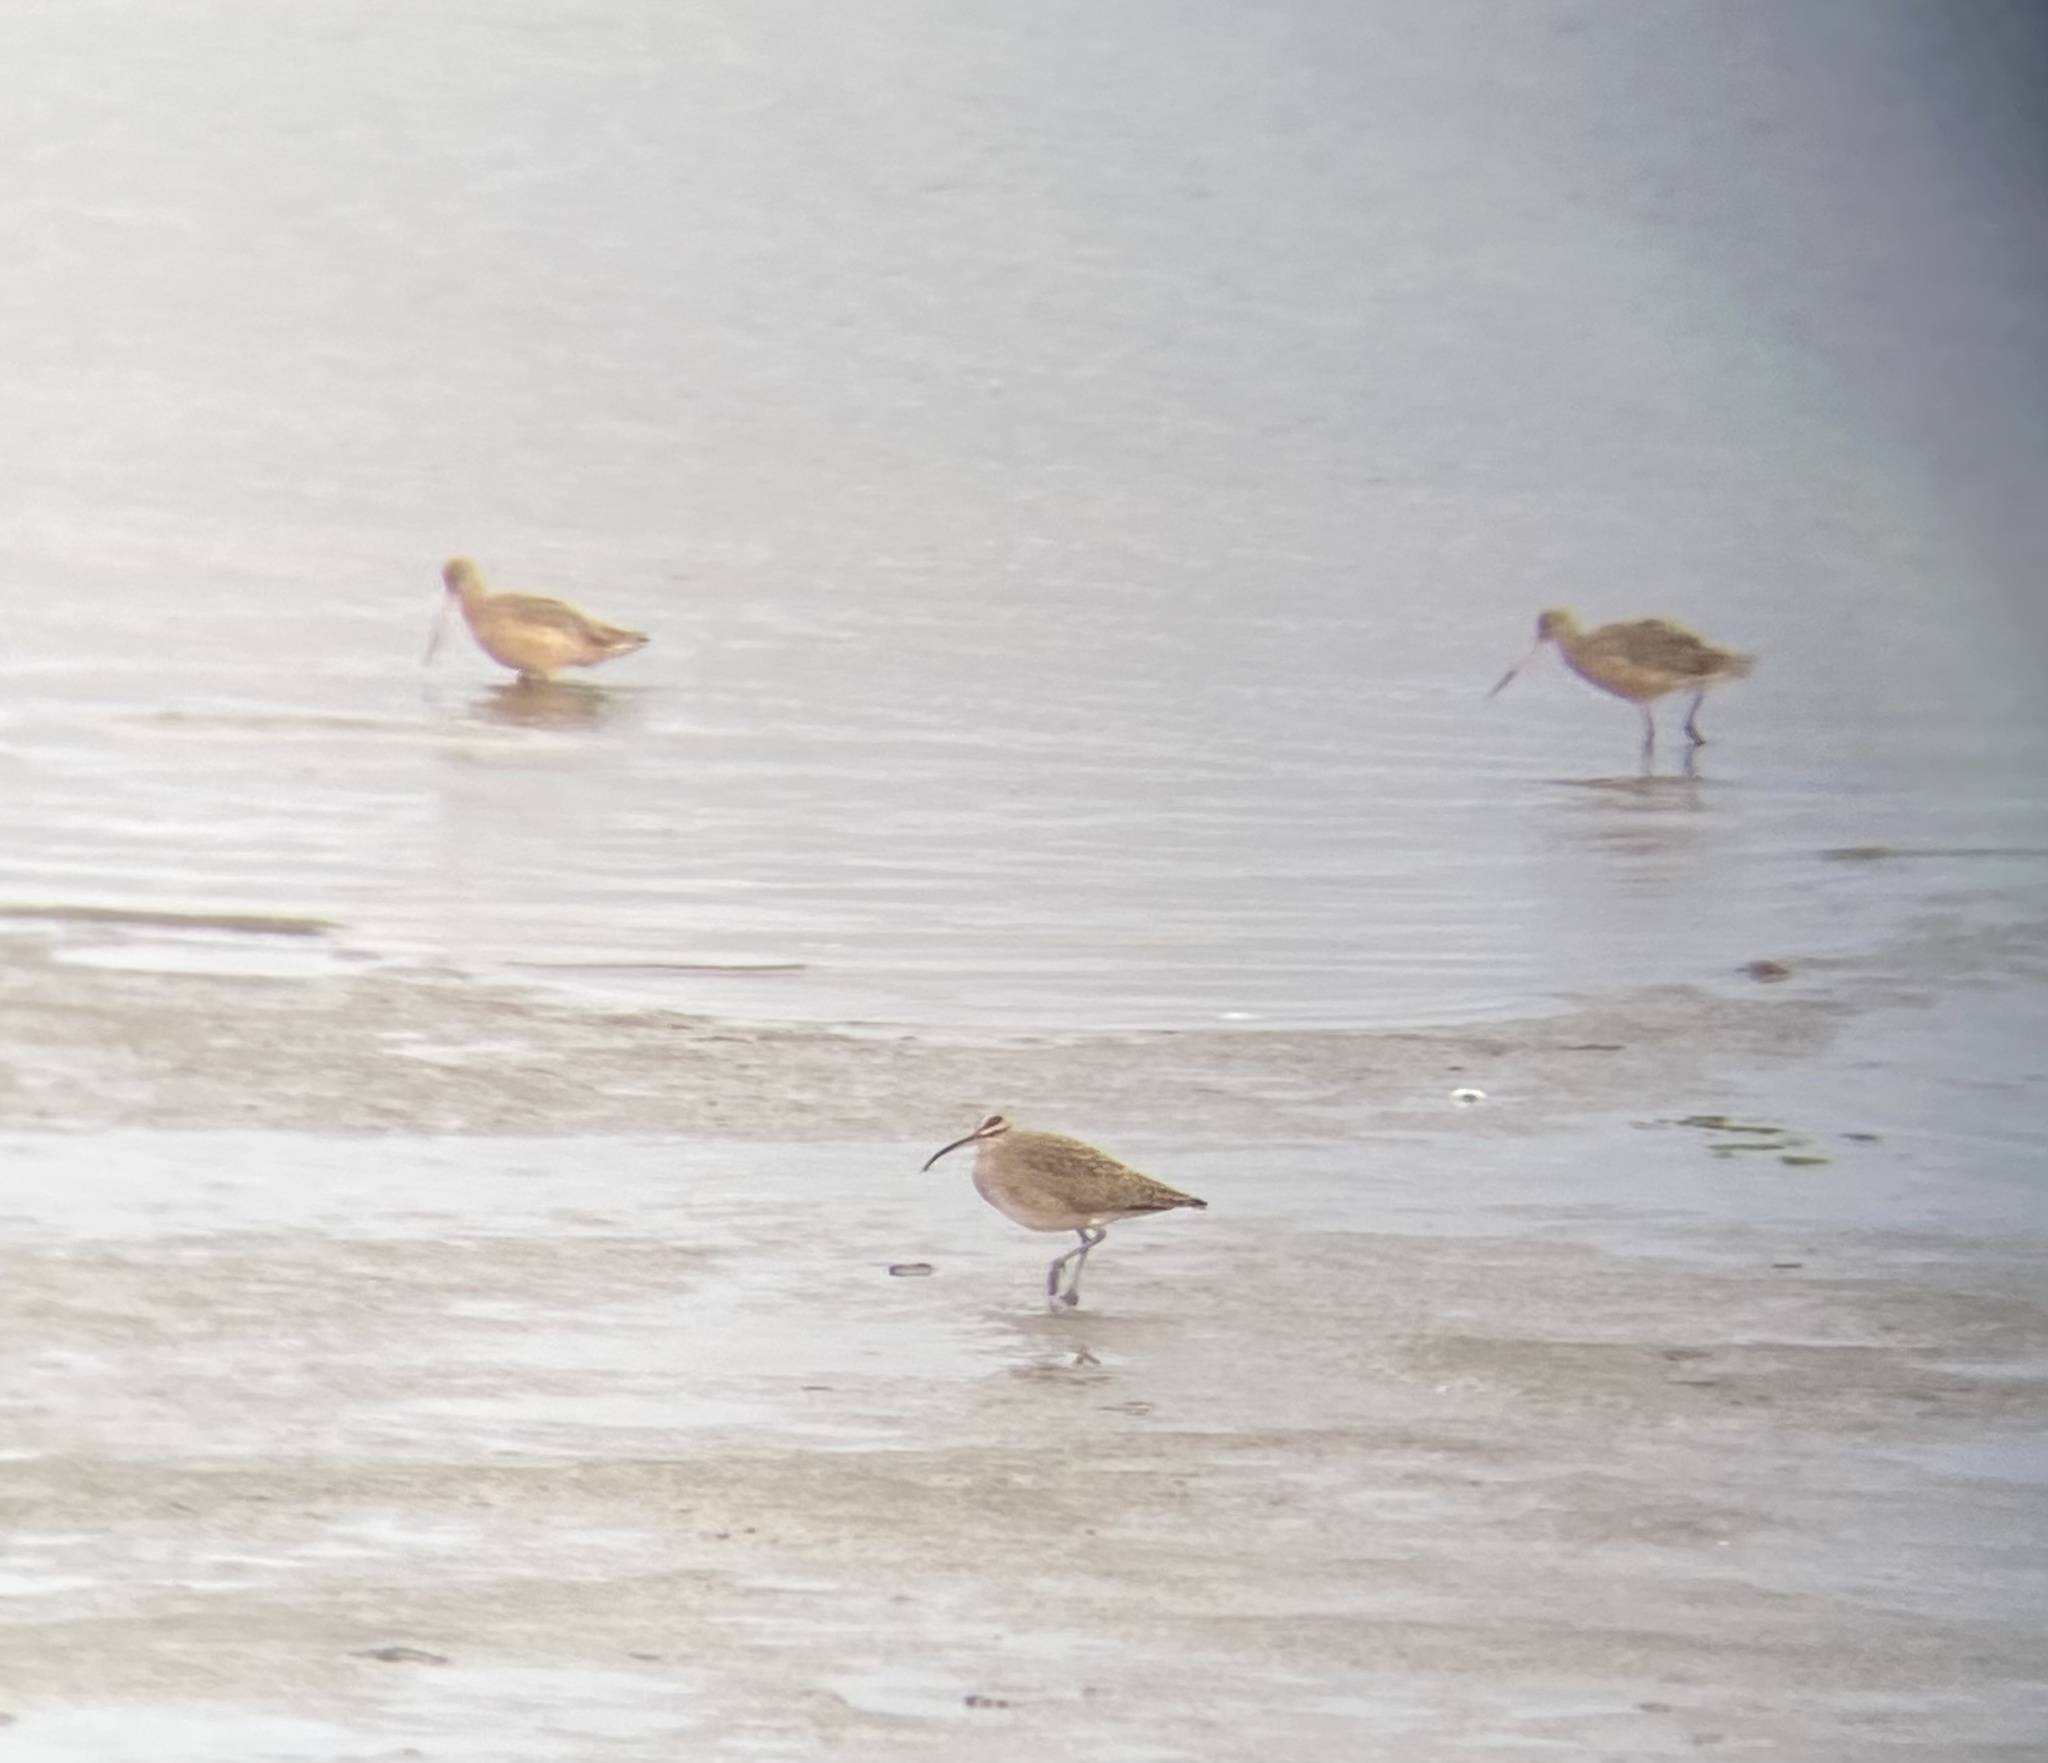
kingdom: Animalia
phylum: Chordata
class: Aves
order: Charadriiformes
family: Scolopacidae
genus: Numenius
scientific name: Numenius phaeopus
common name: Whimbrel
